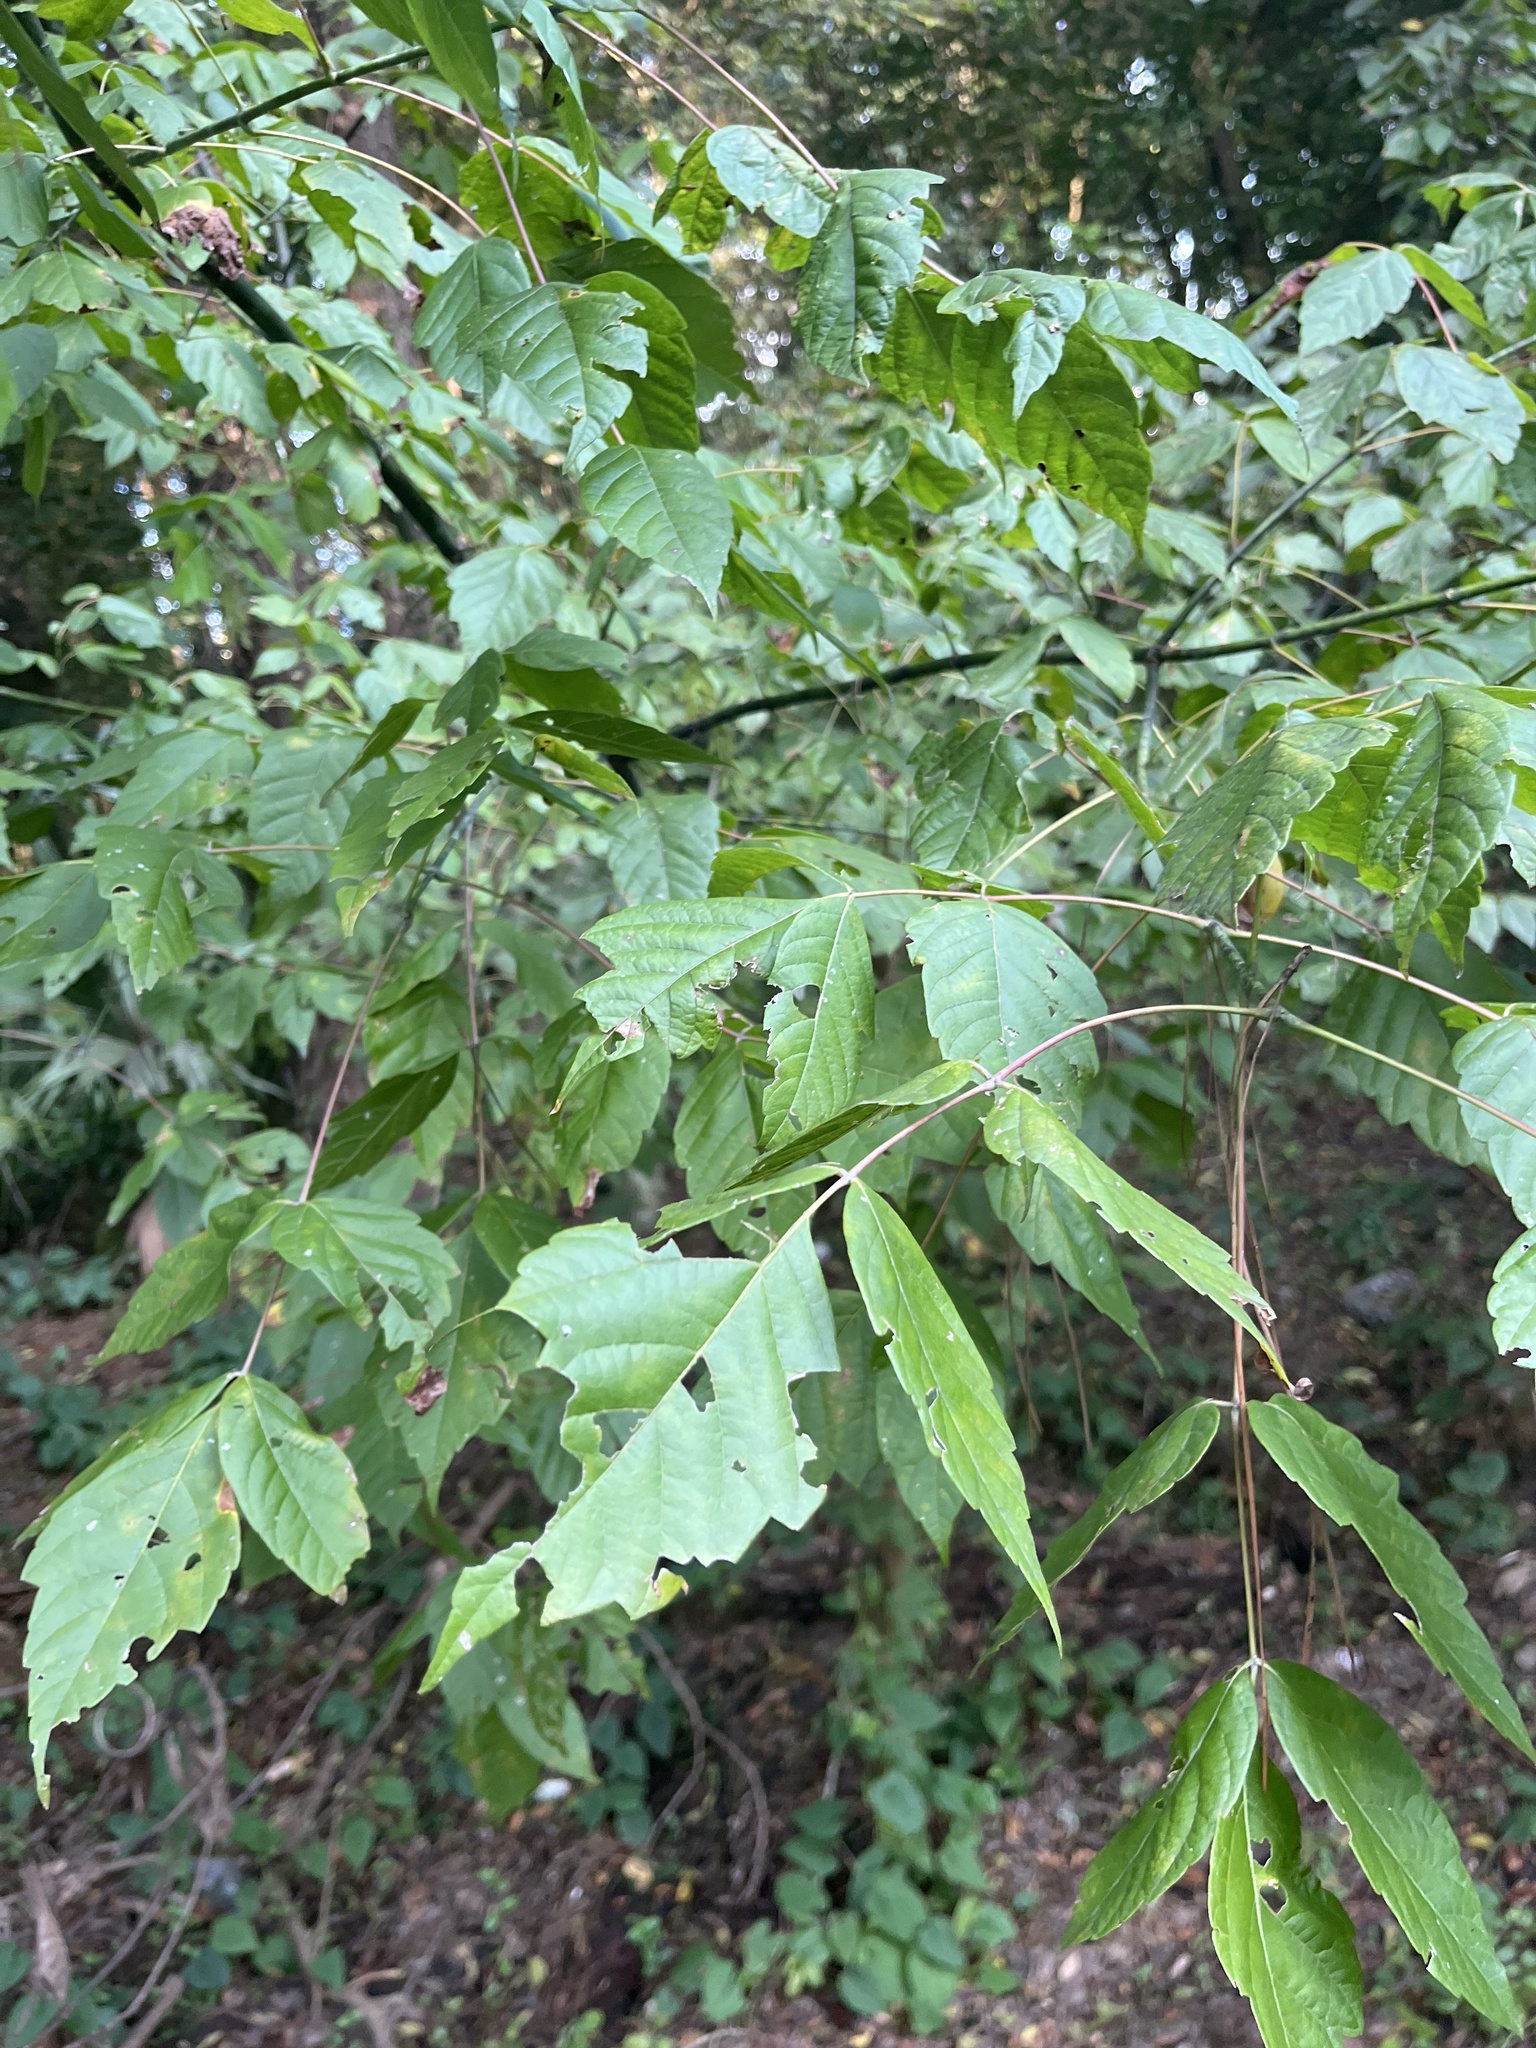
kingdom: Plantae
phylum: Tracheophyta
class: Magnoliopsida
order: Sapindales
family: Sapindaceae
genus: Acer
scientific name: Acer negundo
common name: Ashleaf maple
